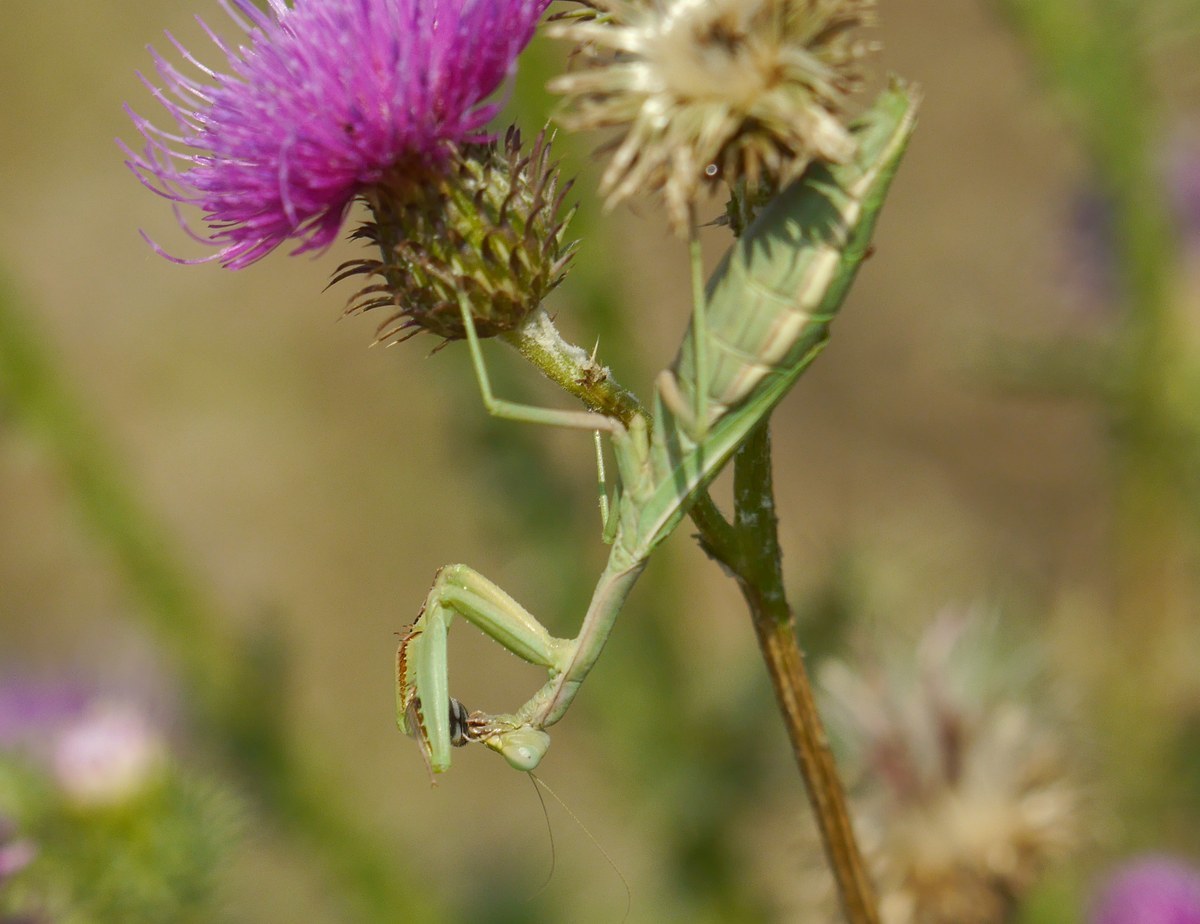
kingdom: Animalia
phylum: Arthropoda
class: Insecta
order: Mantodea
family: Eremiaphilidae
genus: Iris
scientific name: Iris polystictica
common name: Dot-winged mantis
